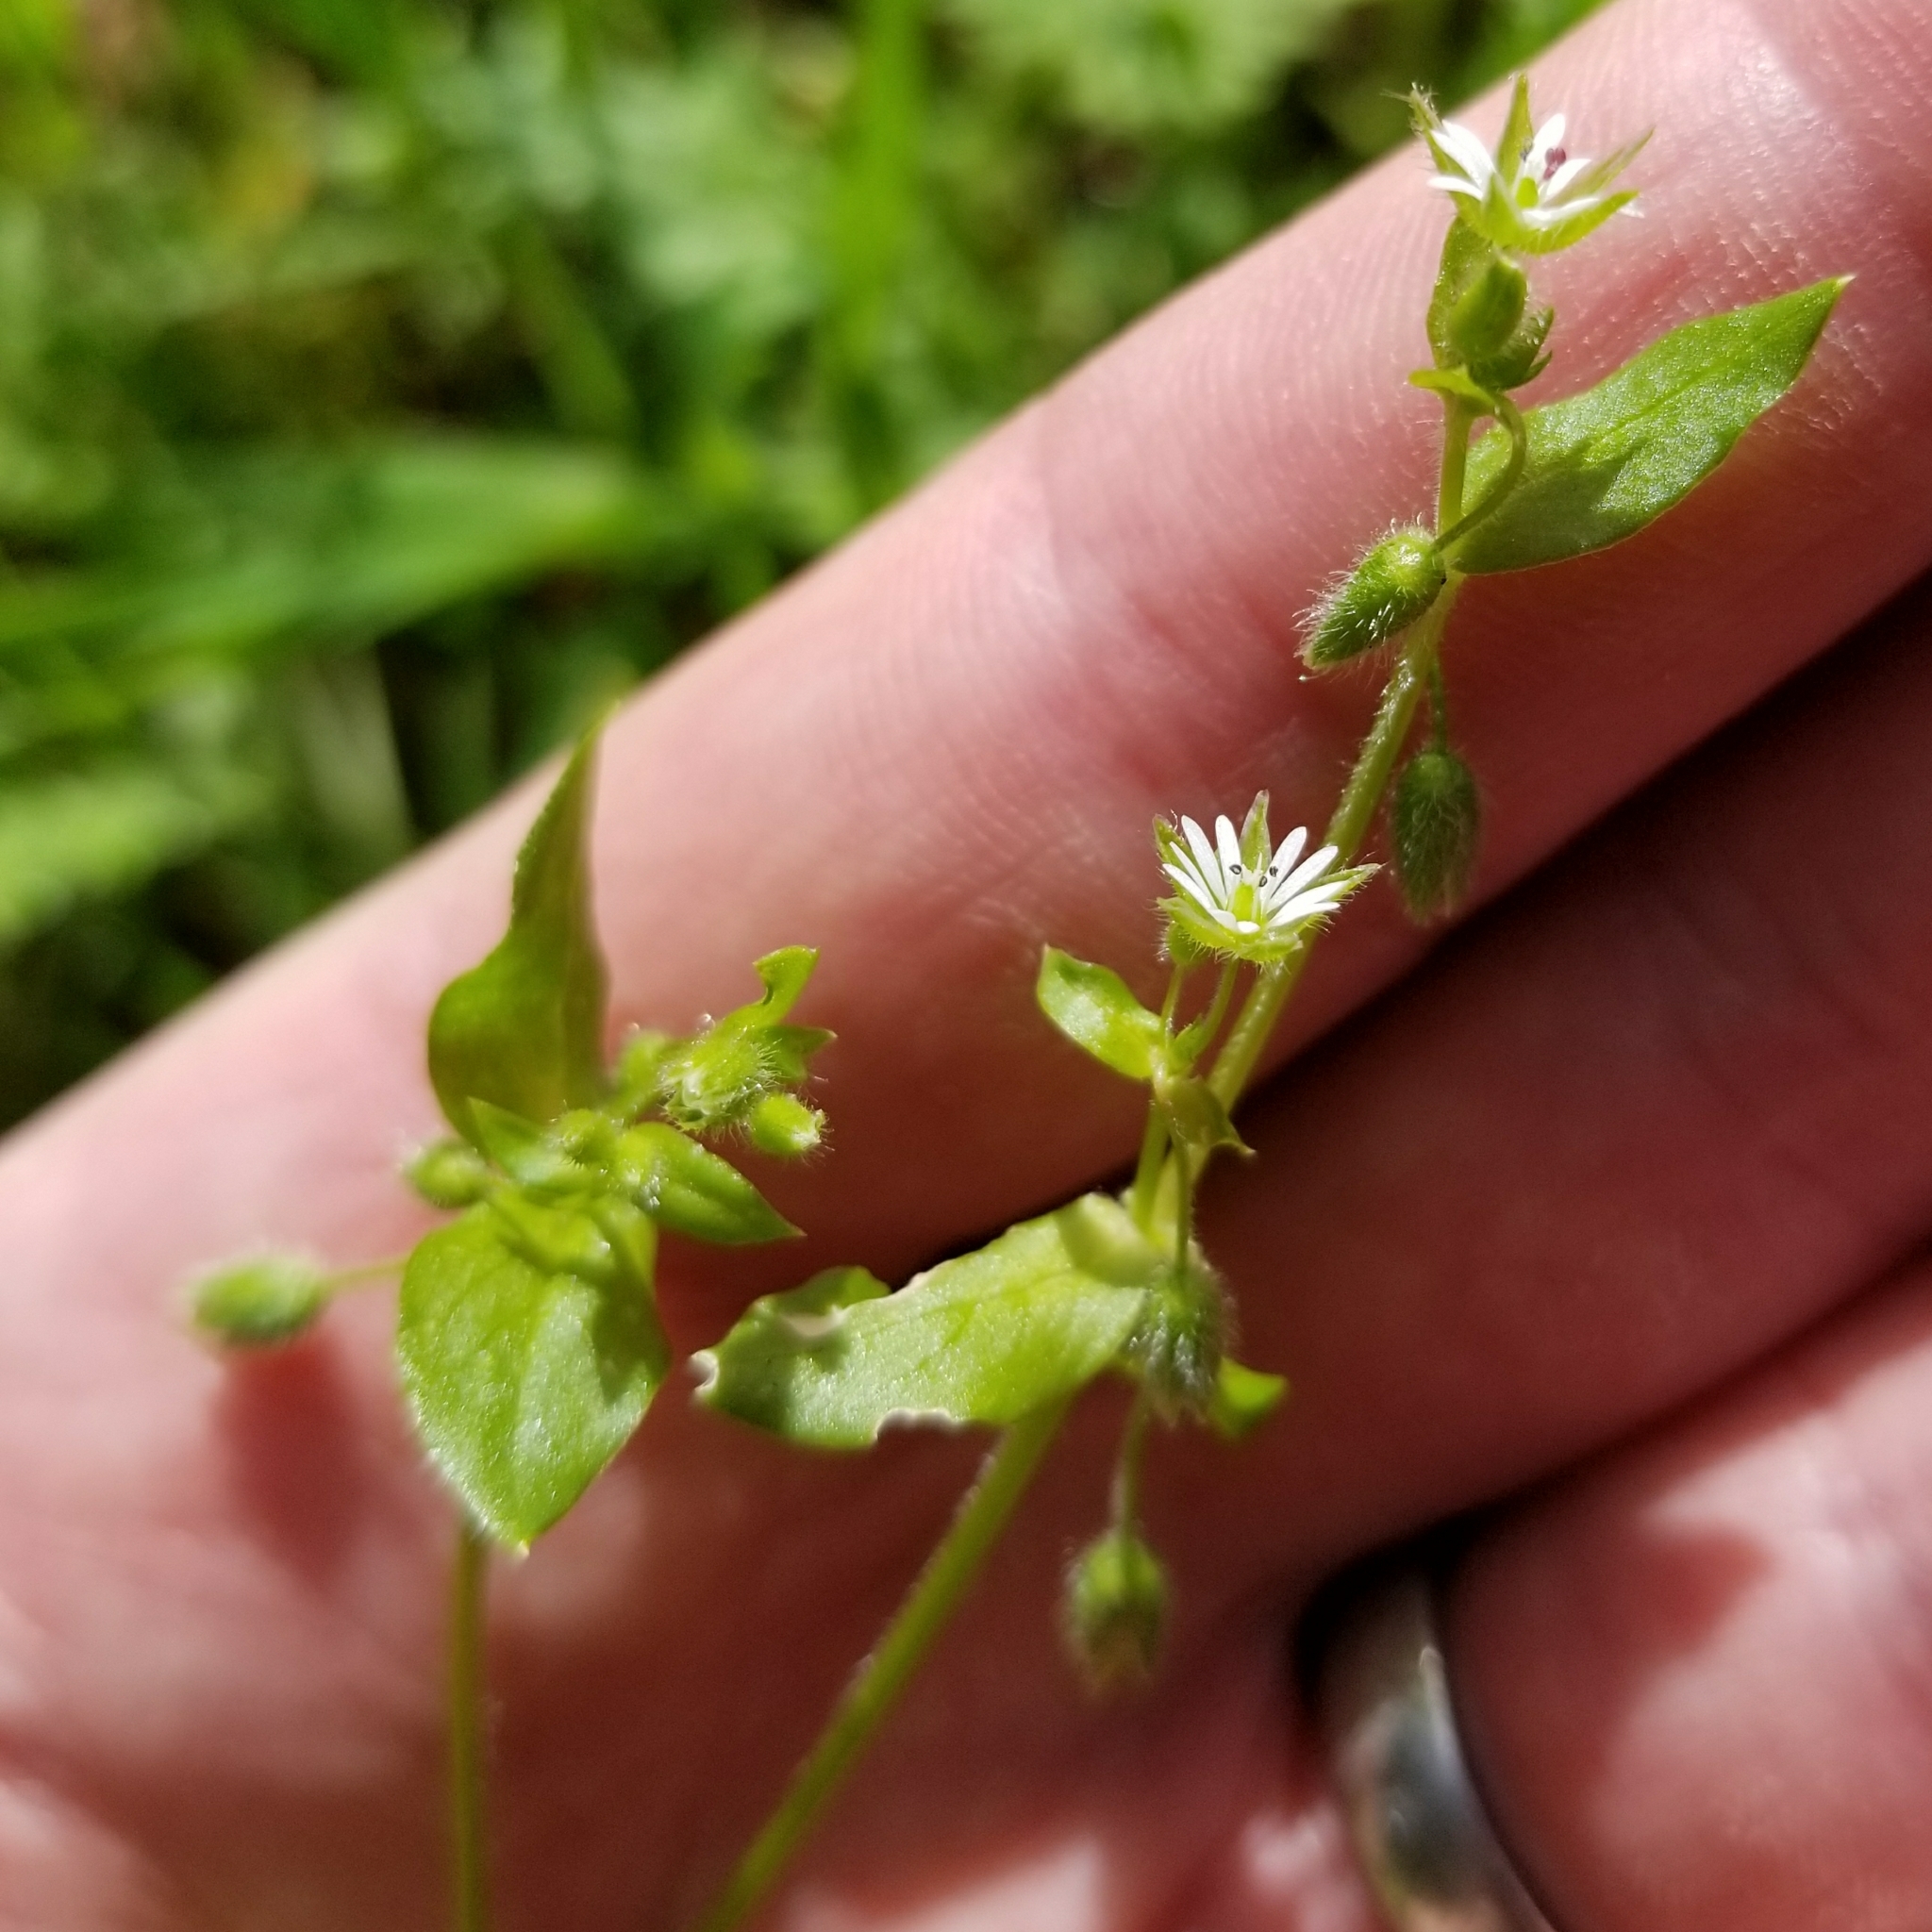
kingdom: Plantae
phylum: Tracheophyta
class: Magnoliopsida
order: Caryophyllales
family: Caryophyllaceae
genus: Stellaria
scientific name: Stellaria media
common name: Common chickweed
